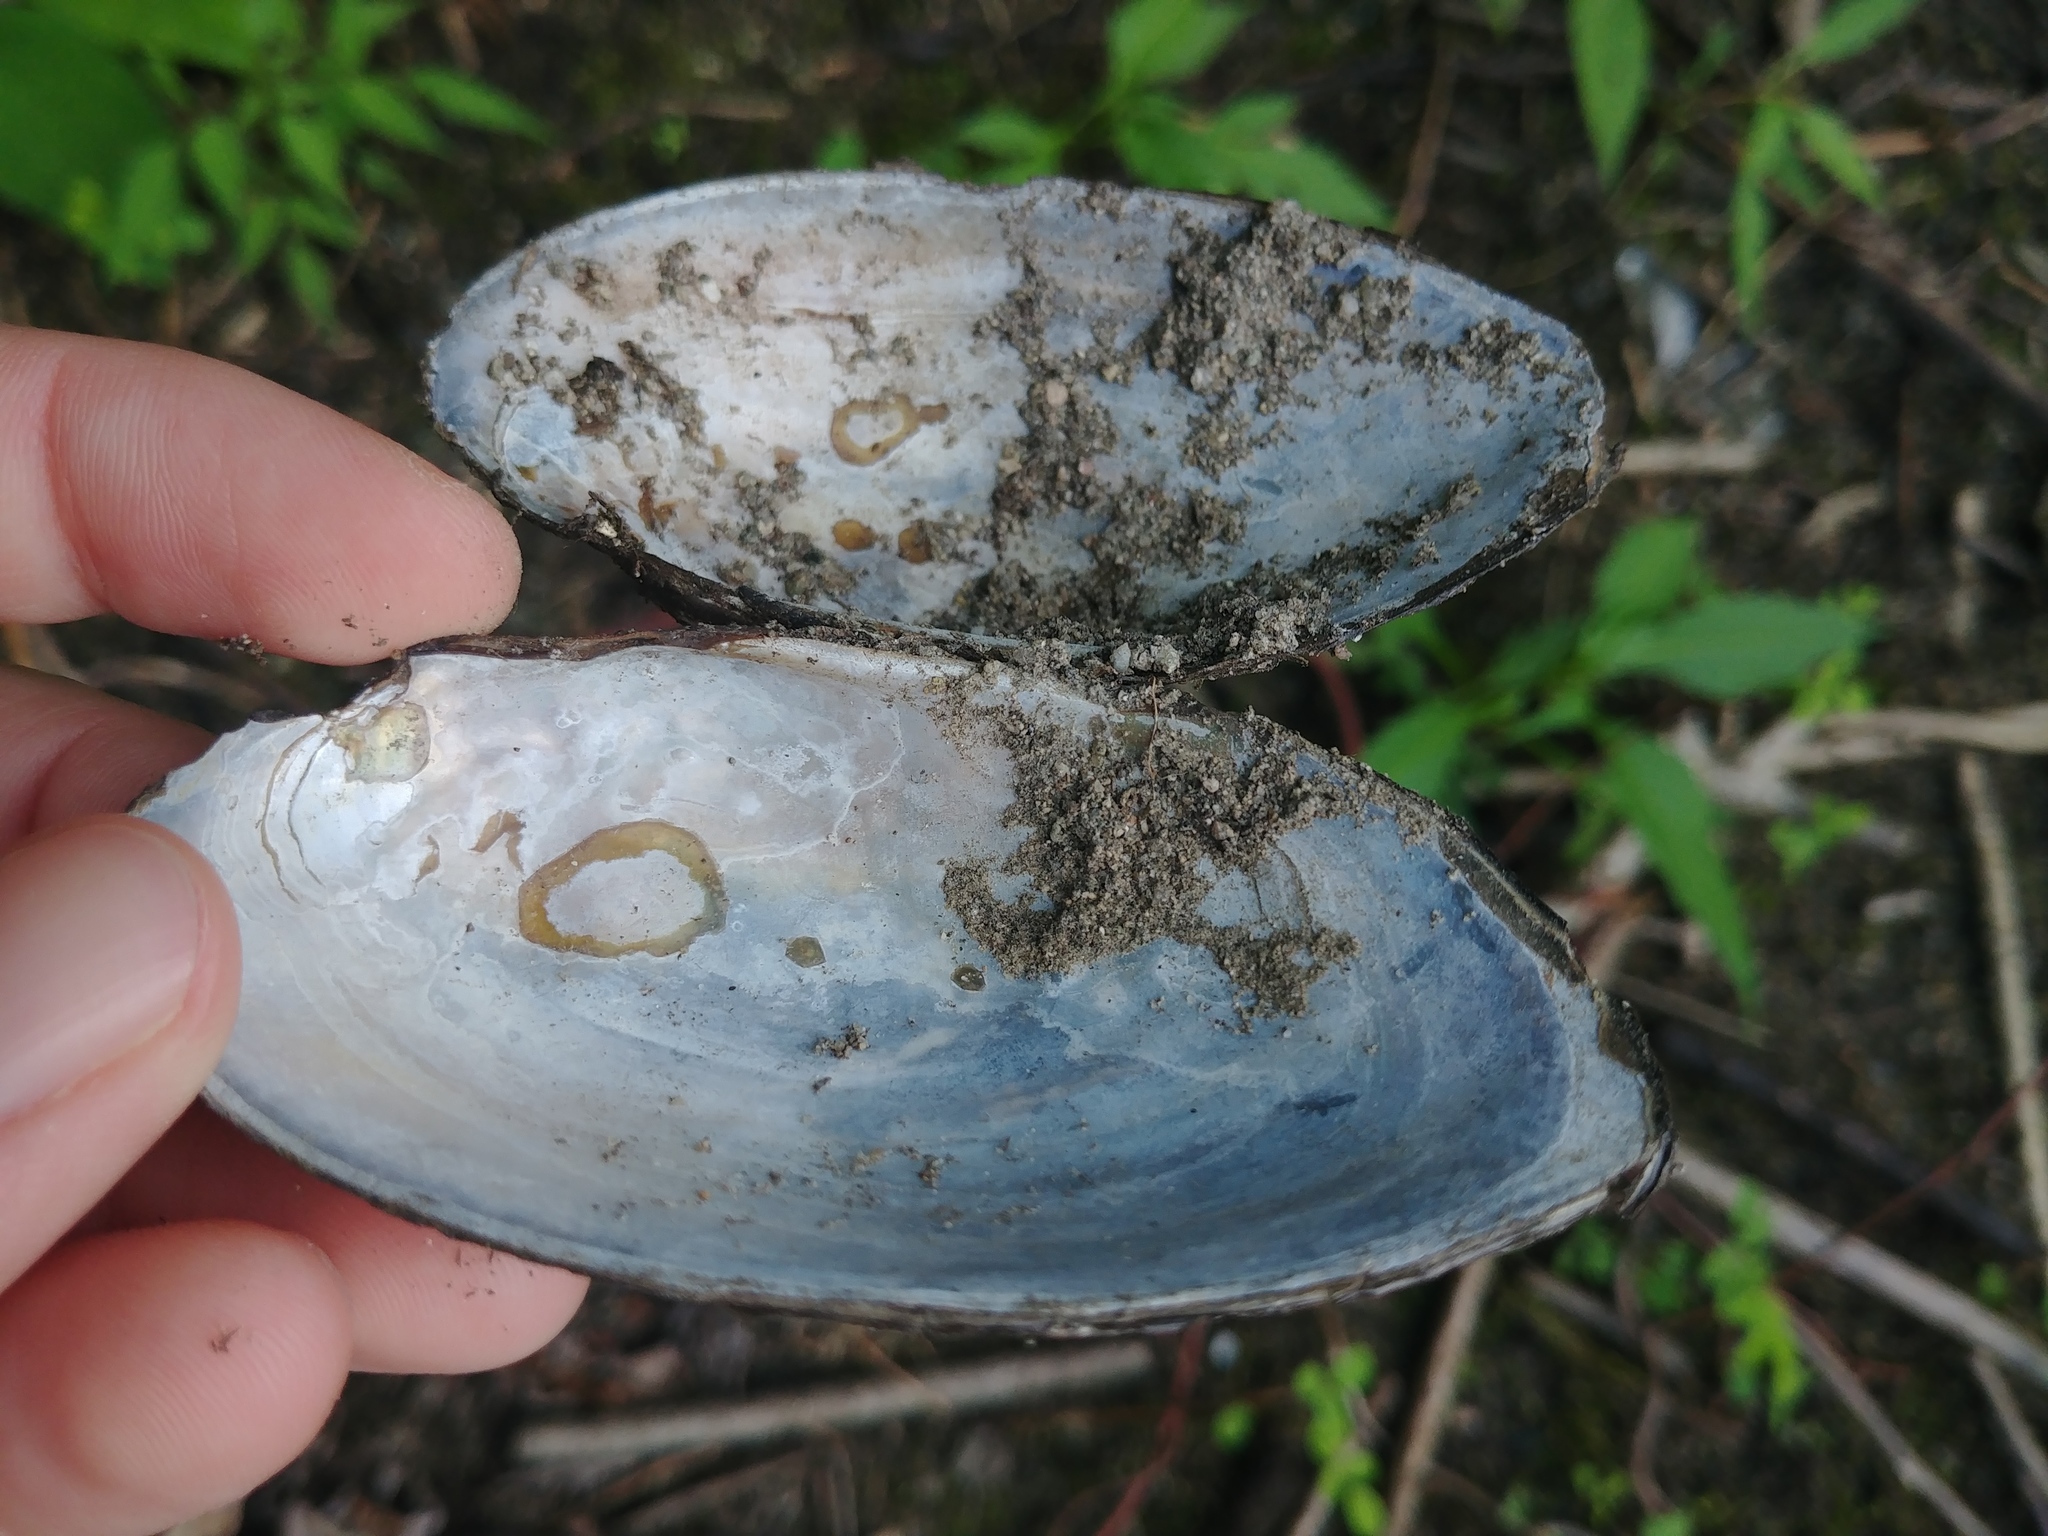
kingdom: Animalia
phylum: Mollusca
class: Bivalvia
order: Unionida
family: Unionidae
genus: Utterbackiana
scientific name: Utterbackiana implicata
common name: Alewife floater
